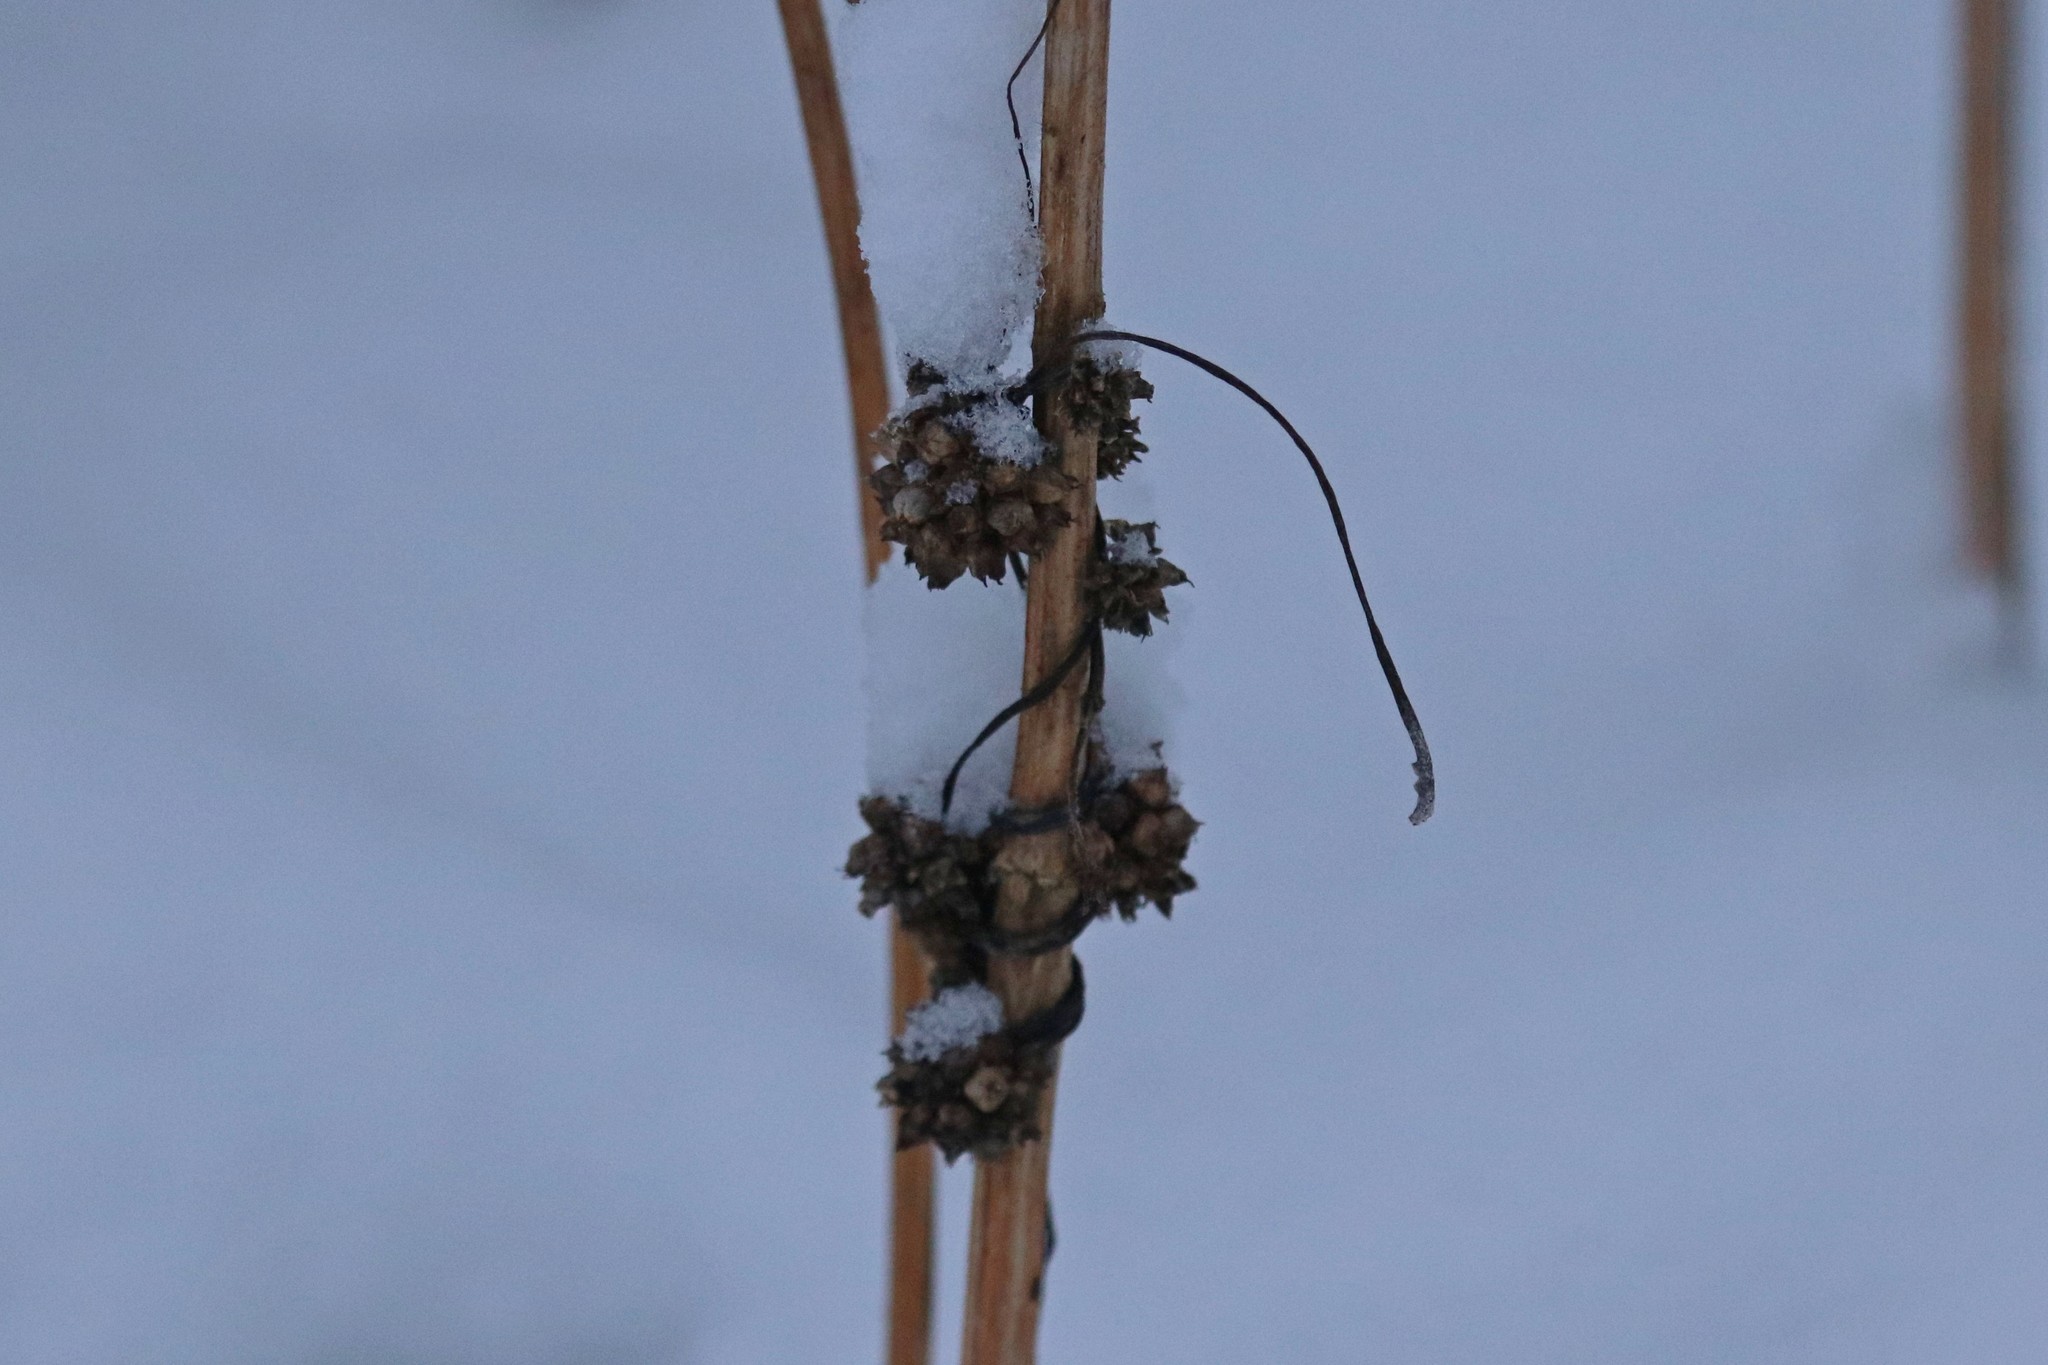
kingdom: Plantae
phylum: Tracheophyta
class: Magnoliopsida
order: Solanales
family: Convolvulaceae
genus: Cuscuta
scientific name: Cuscuta europaea
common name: Greater dodder
